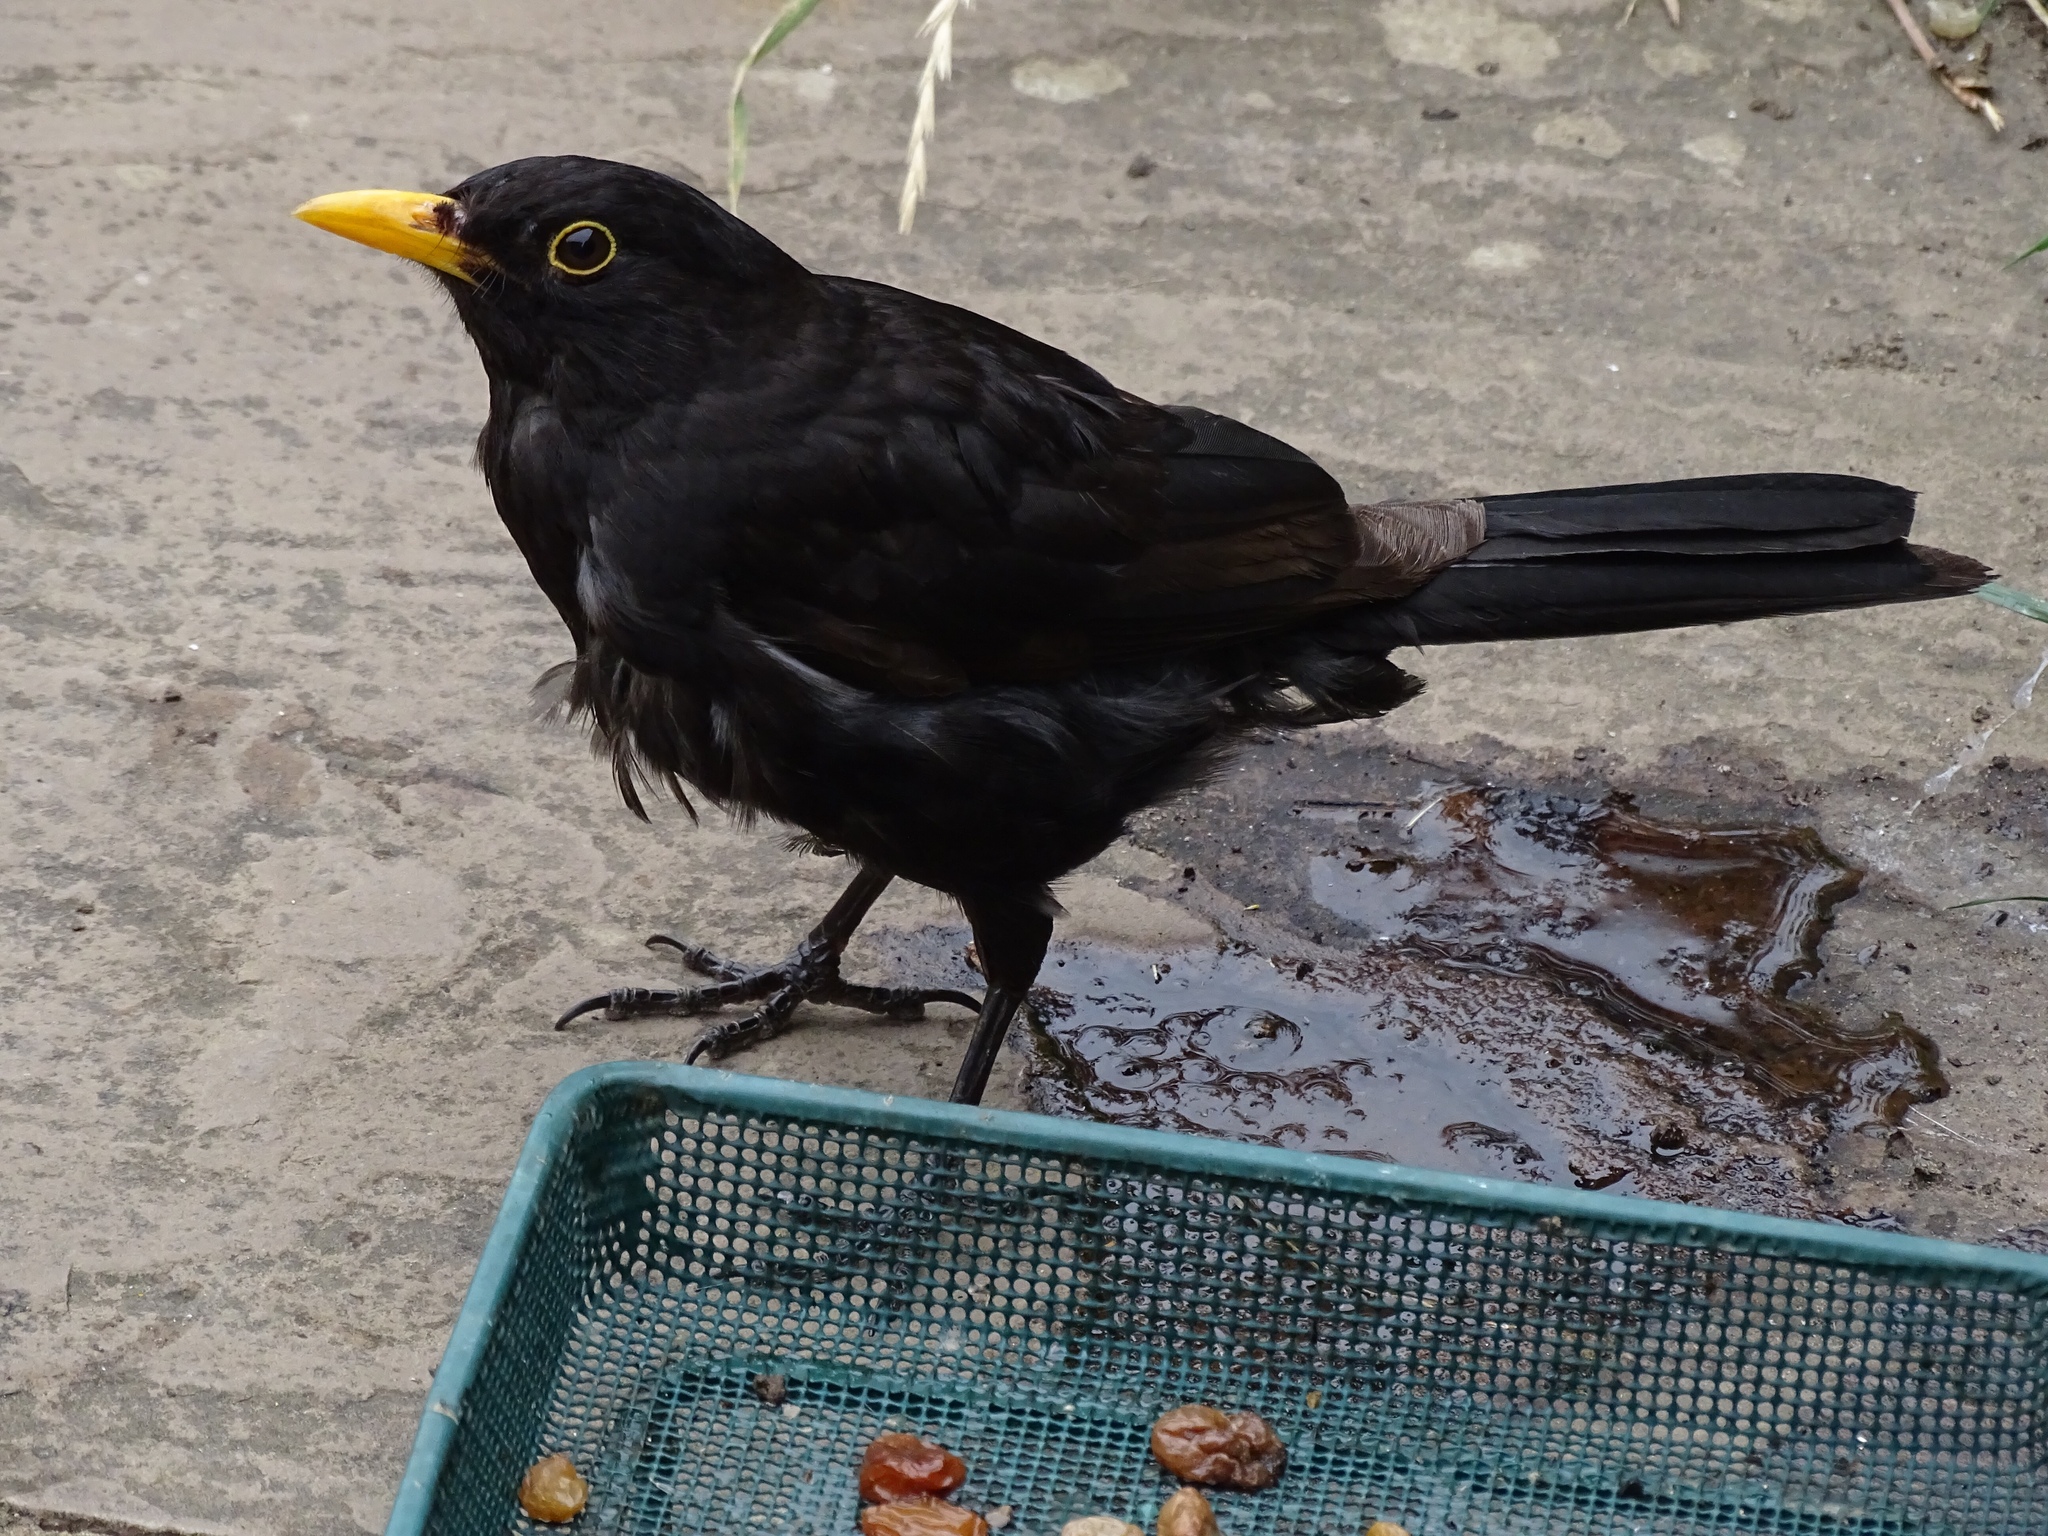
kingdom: Animalia
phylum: Chordata
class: Aves
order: Passeriformes
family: Turdidae
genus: Turdus
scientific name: Turdus merula
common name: Common blackbird
